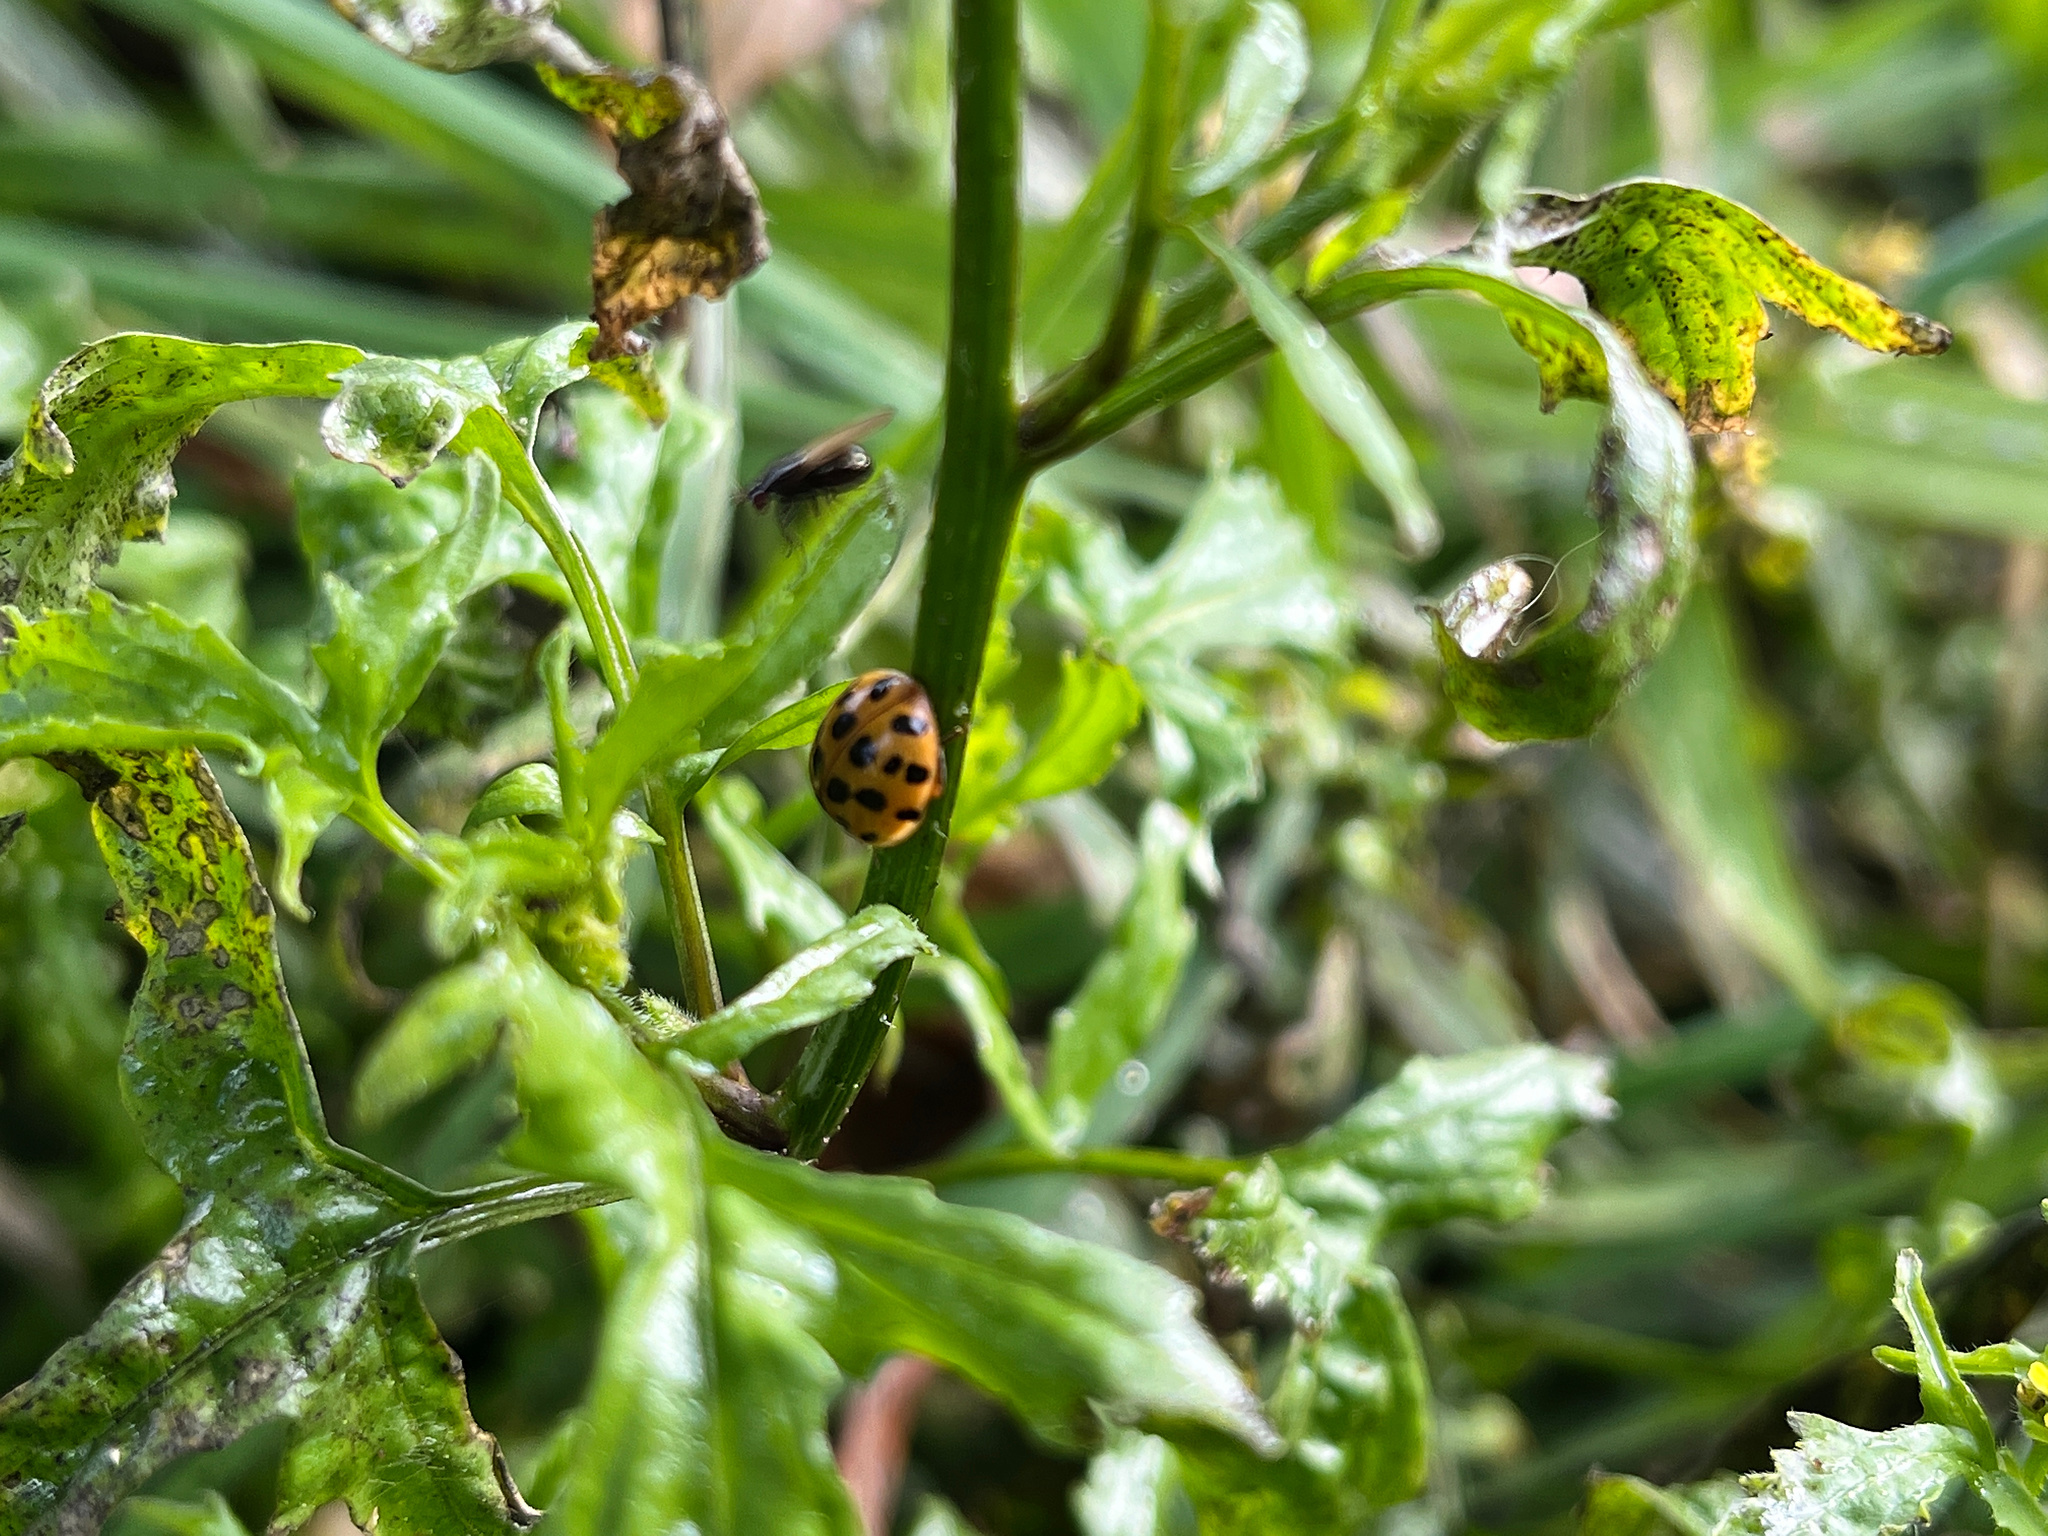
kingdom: Animalia
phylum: Arthropoda
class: Insecta
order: Coleoptera
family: Coccinellidae
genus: Harmonia
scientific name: Harmonia axyridis
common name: Harlequin ladybird
